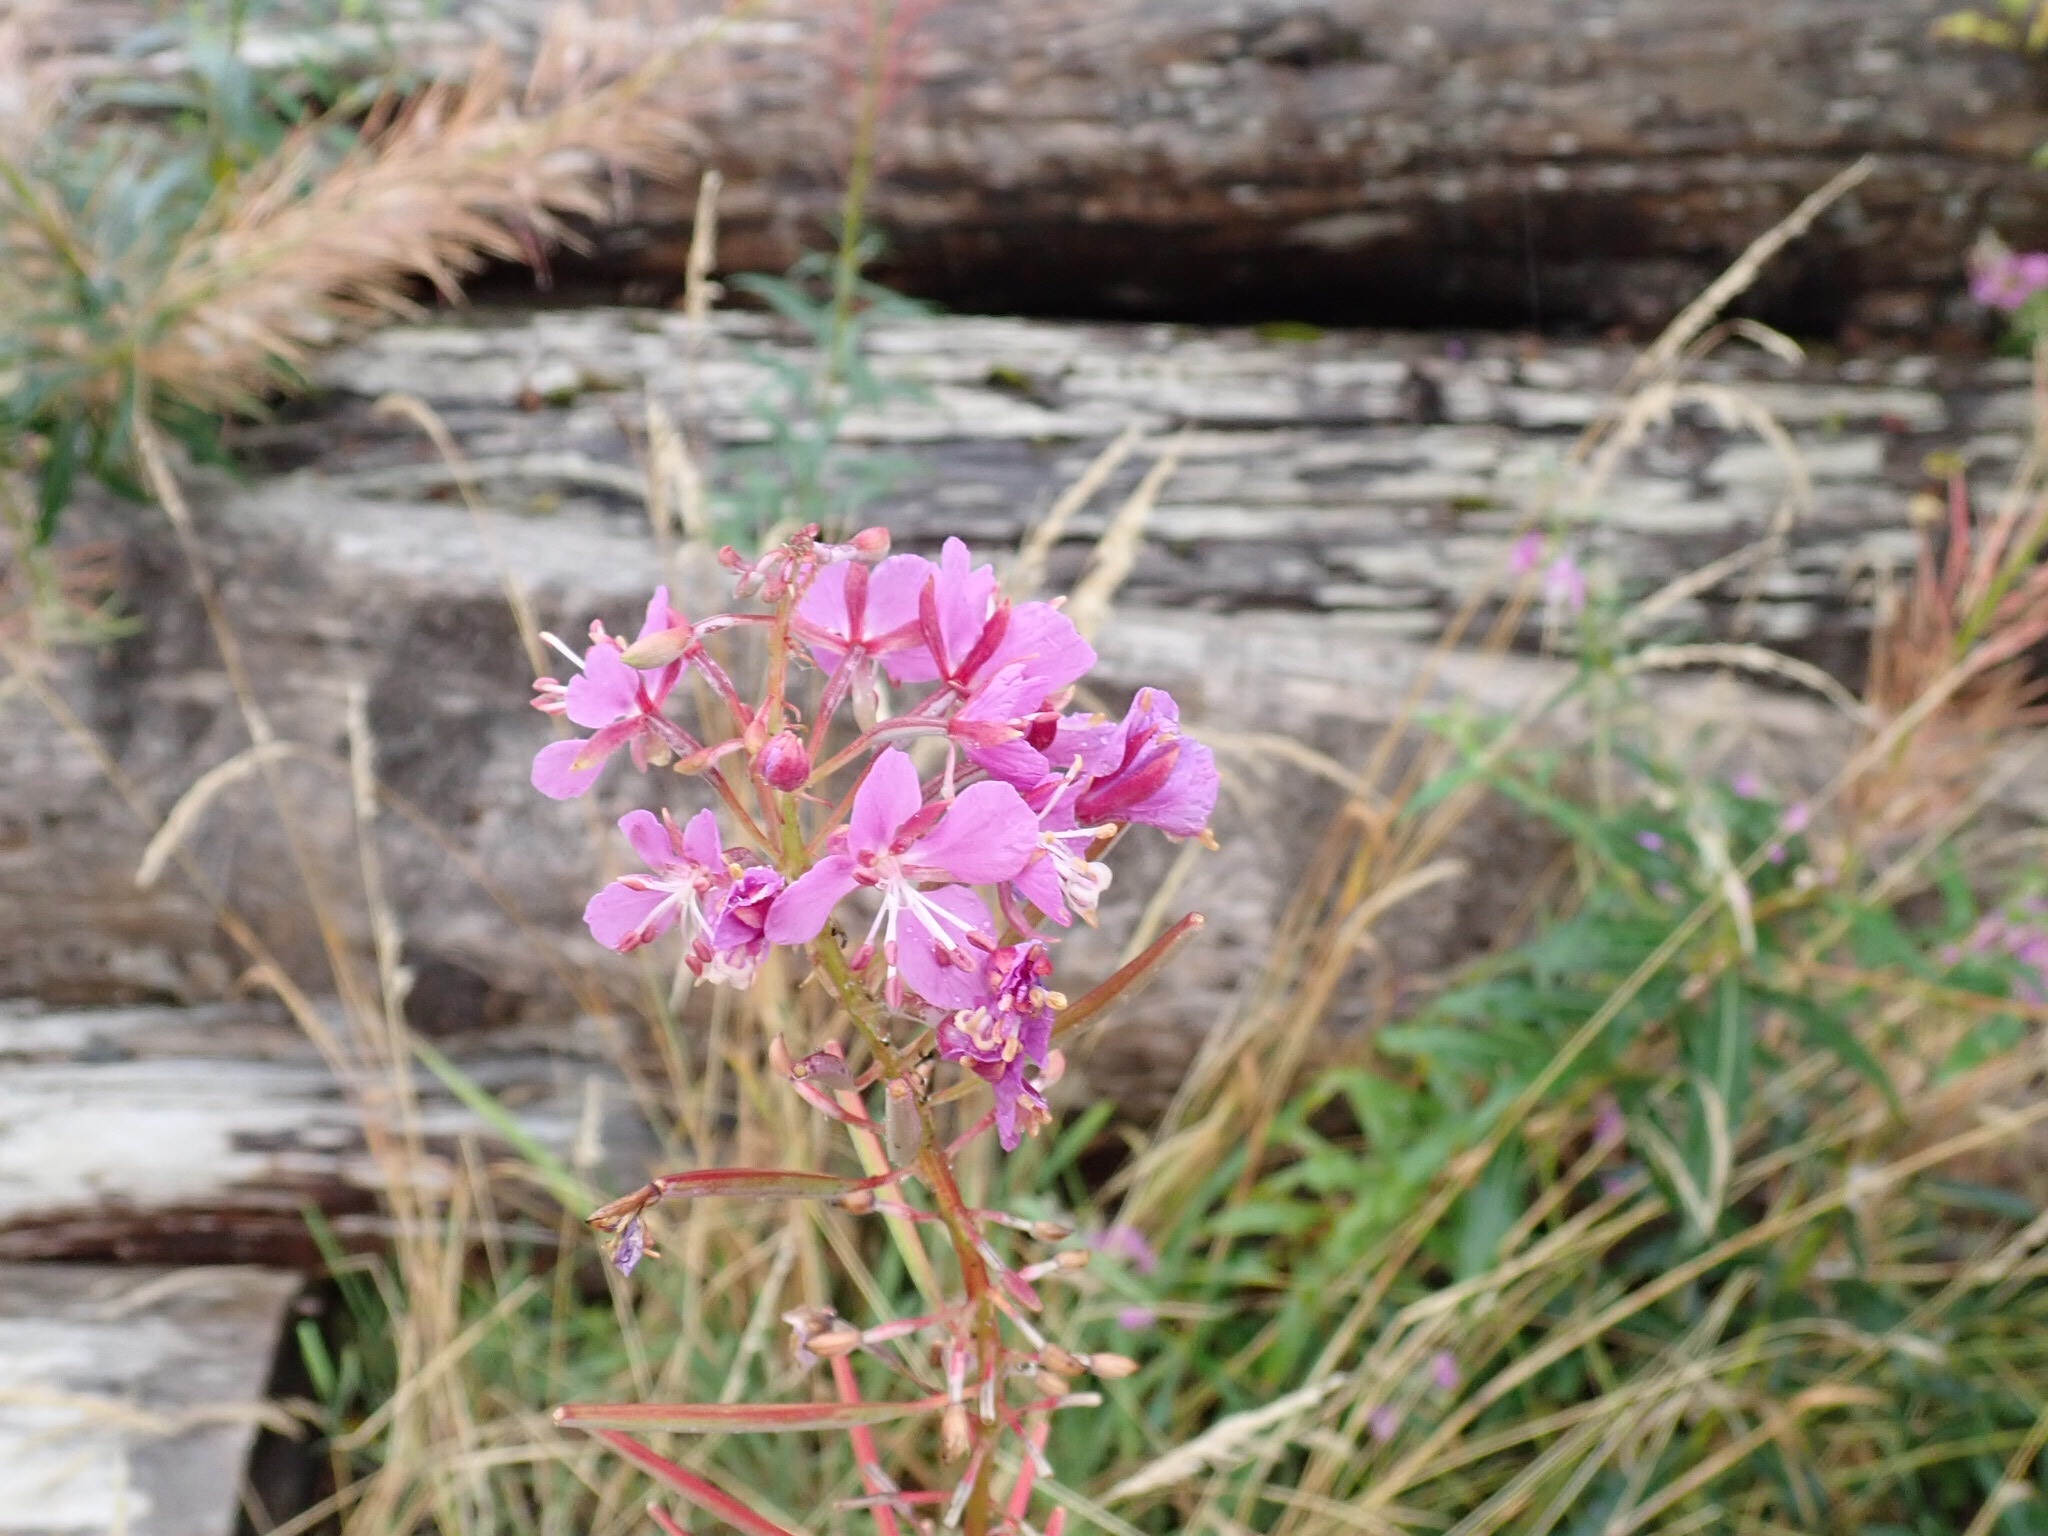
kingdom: Plantae
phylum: Tracheophyta
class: Magnoliopsida
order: Myrtales
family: Onagraceae
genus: Chamaenerion
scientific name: Chamaenerion angustifolium
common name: Fireweed
